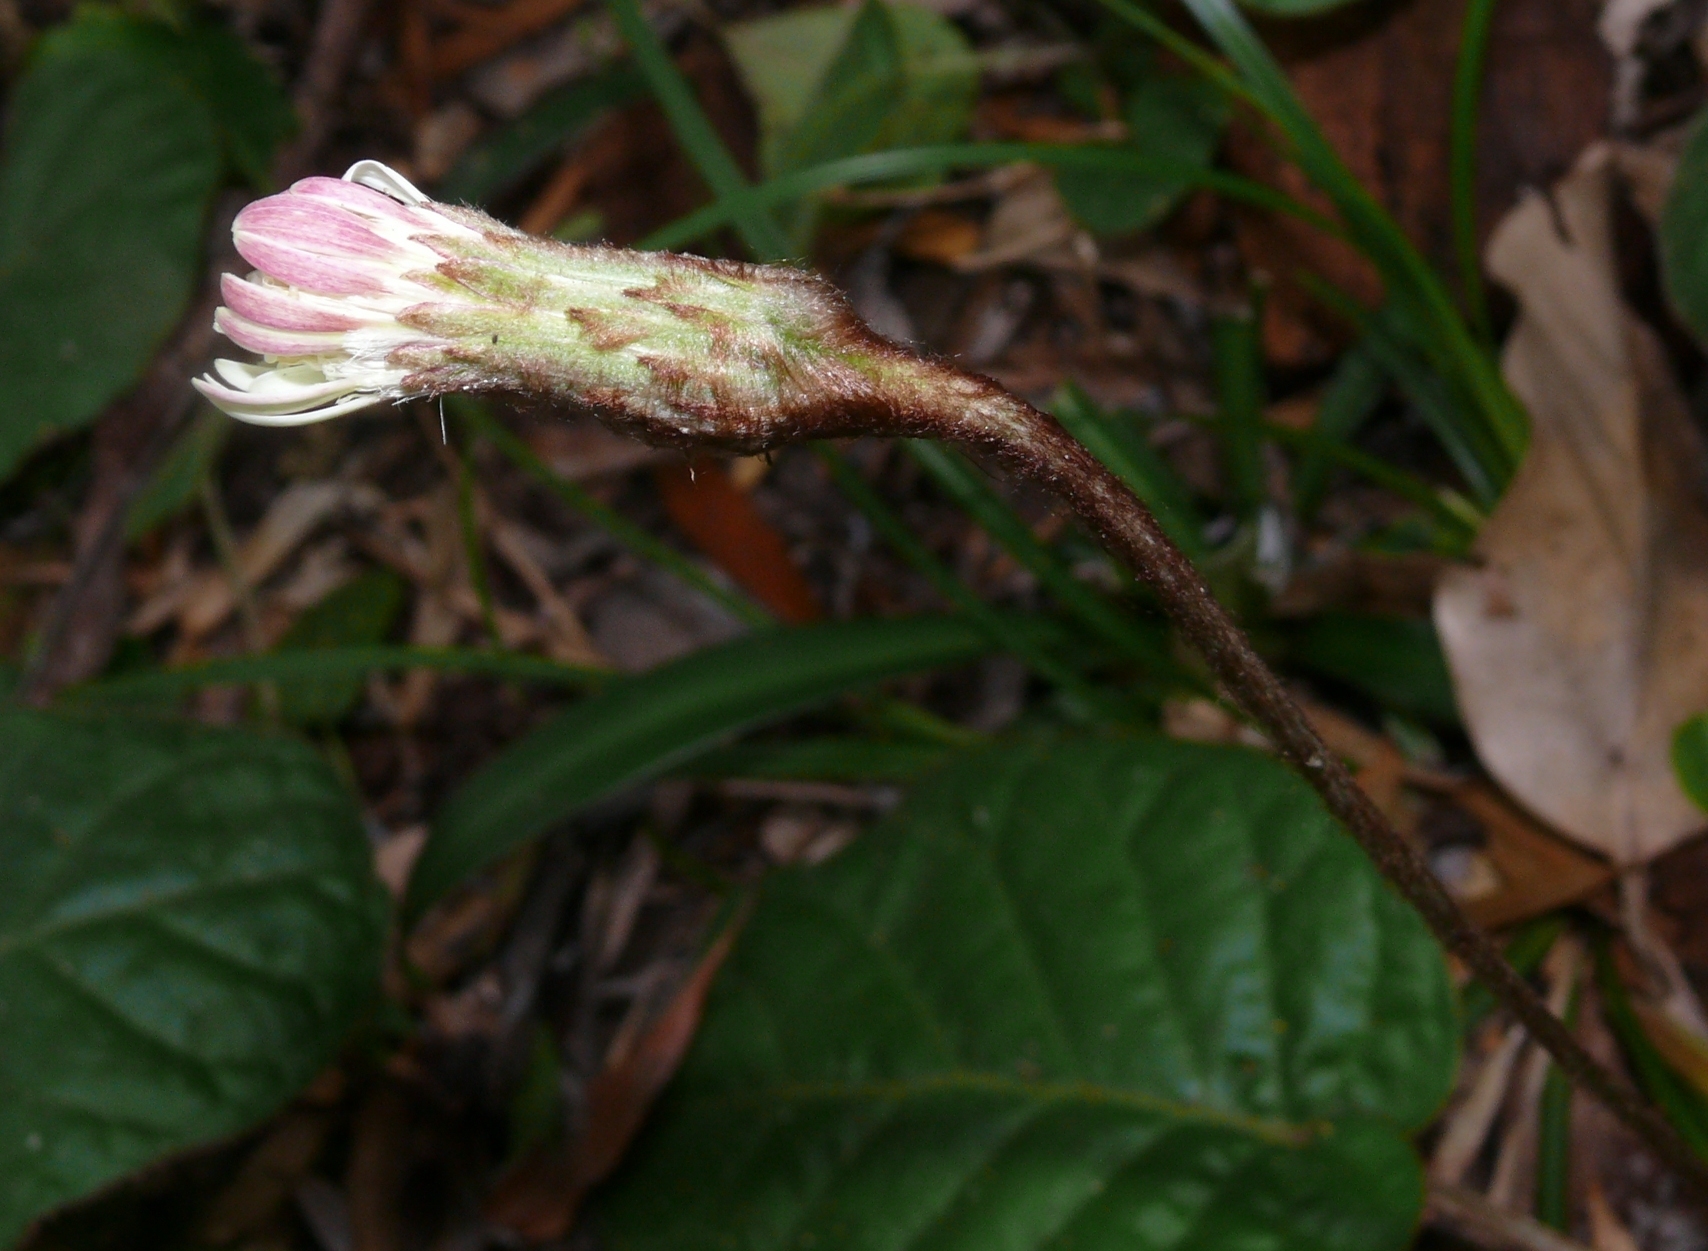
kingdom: Plantae
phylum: Tracheophyta
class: Magnoliopsida
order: Asterales
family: Asteraceae
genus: Piloselloides
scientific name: Piloselloides cordata
